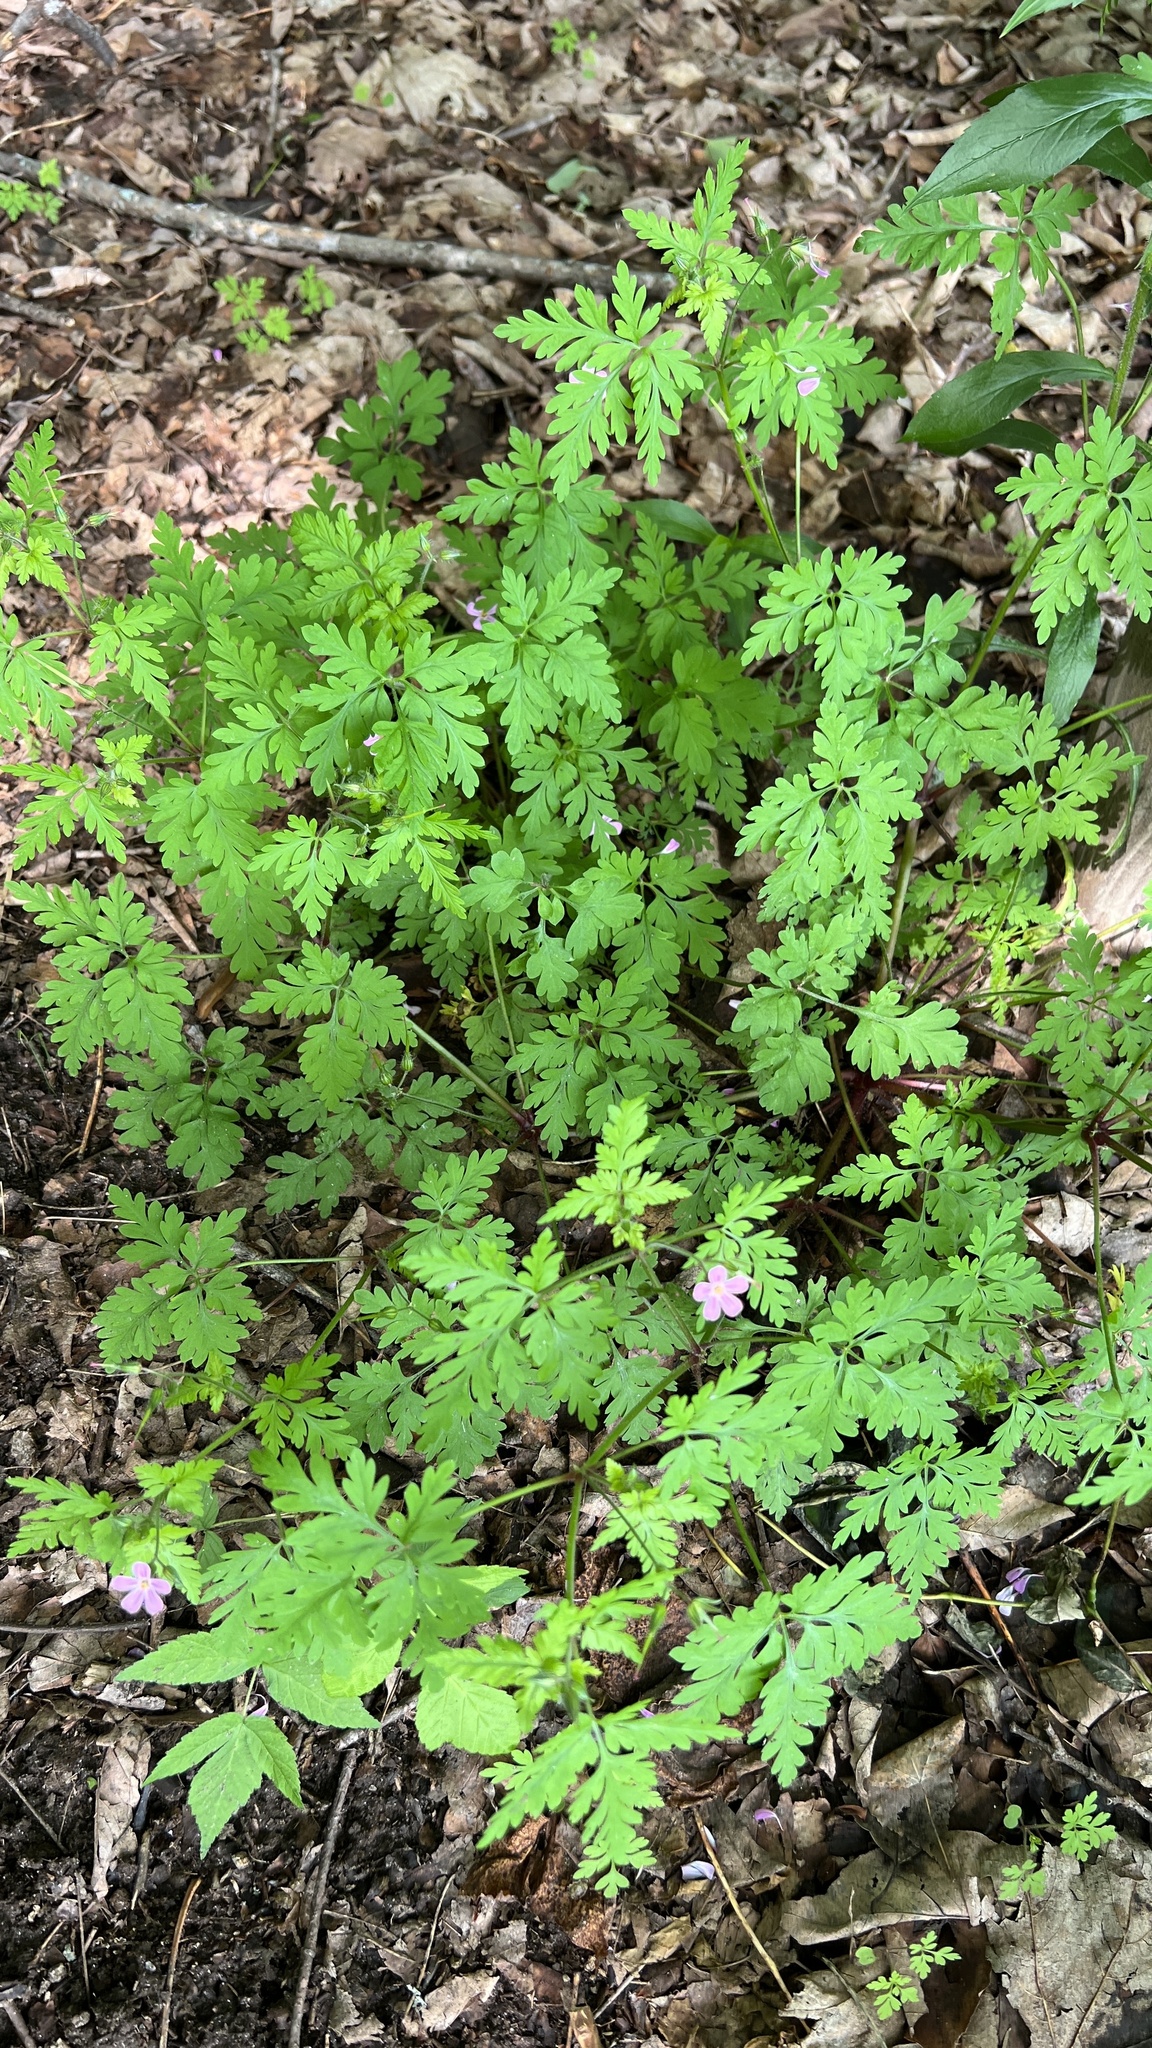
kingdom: Plantae
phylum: Tracheophyta
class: Magnoliopsida
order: Geraniales
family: Geraniaceae
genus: Geranium
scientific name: Geranium robertianum
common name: Herb-robert
